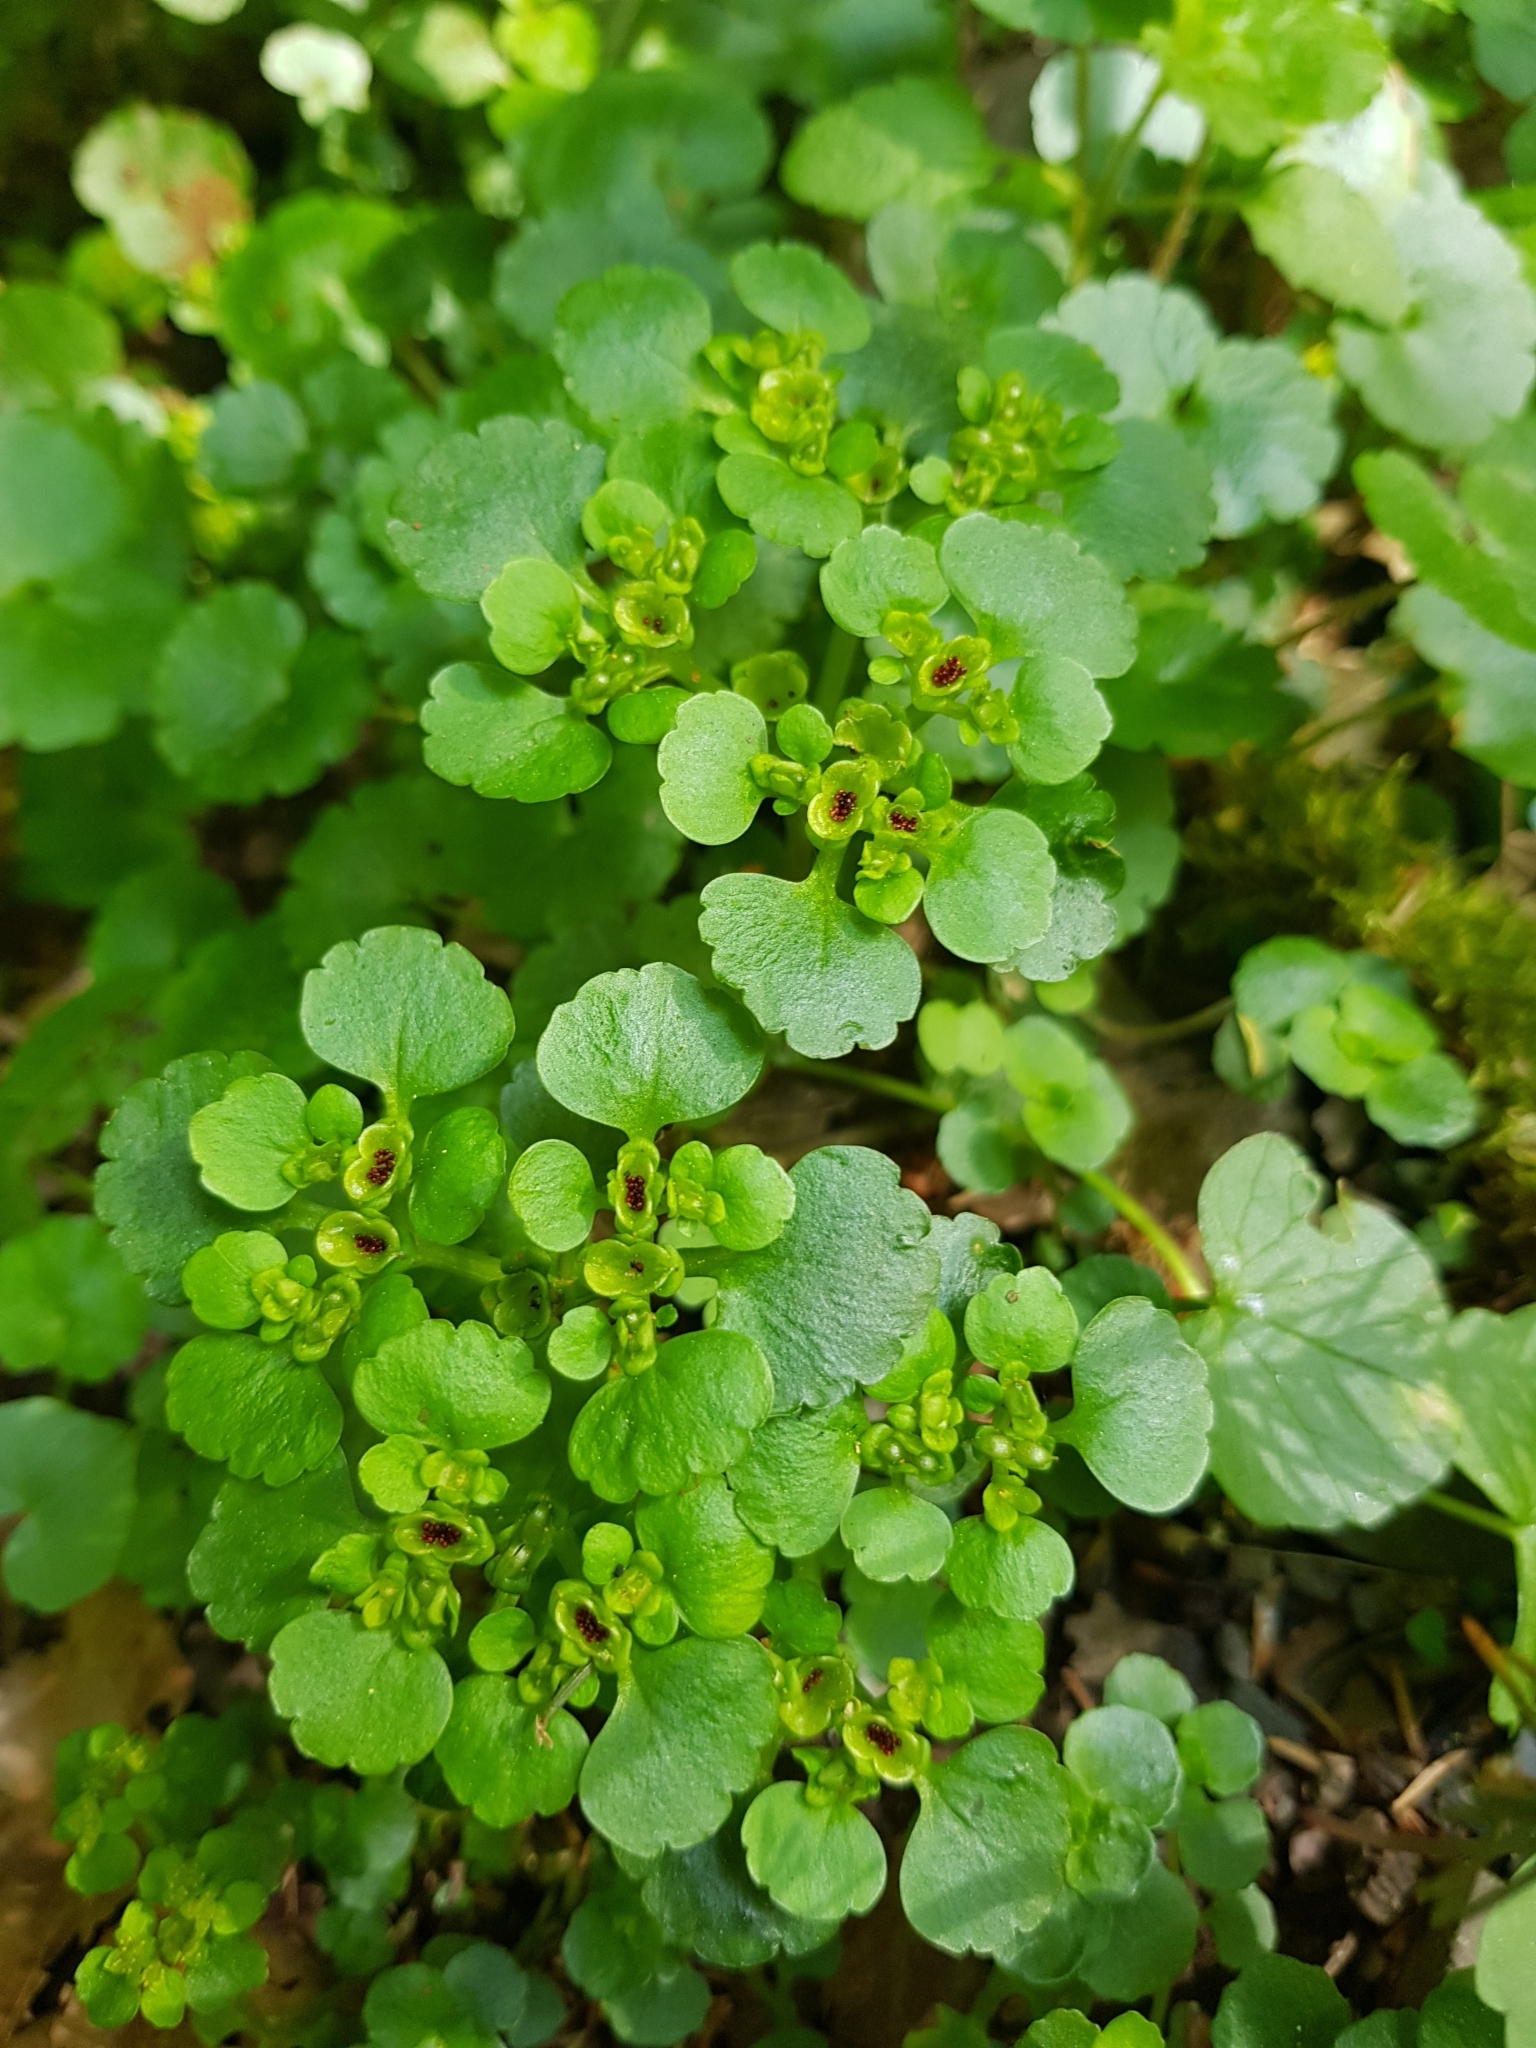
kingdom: Plantae
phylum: Tracheophyta
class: Magnoliopsida
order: Saxifragales
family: Saxifragaceae
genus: Chrysosplenium
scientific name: Chrysosplenium alternifolium
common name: Alternate-leaved golden-saxifrage
